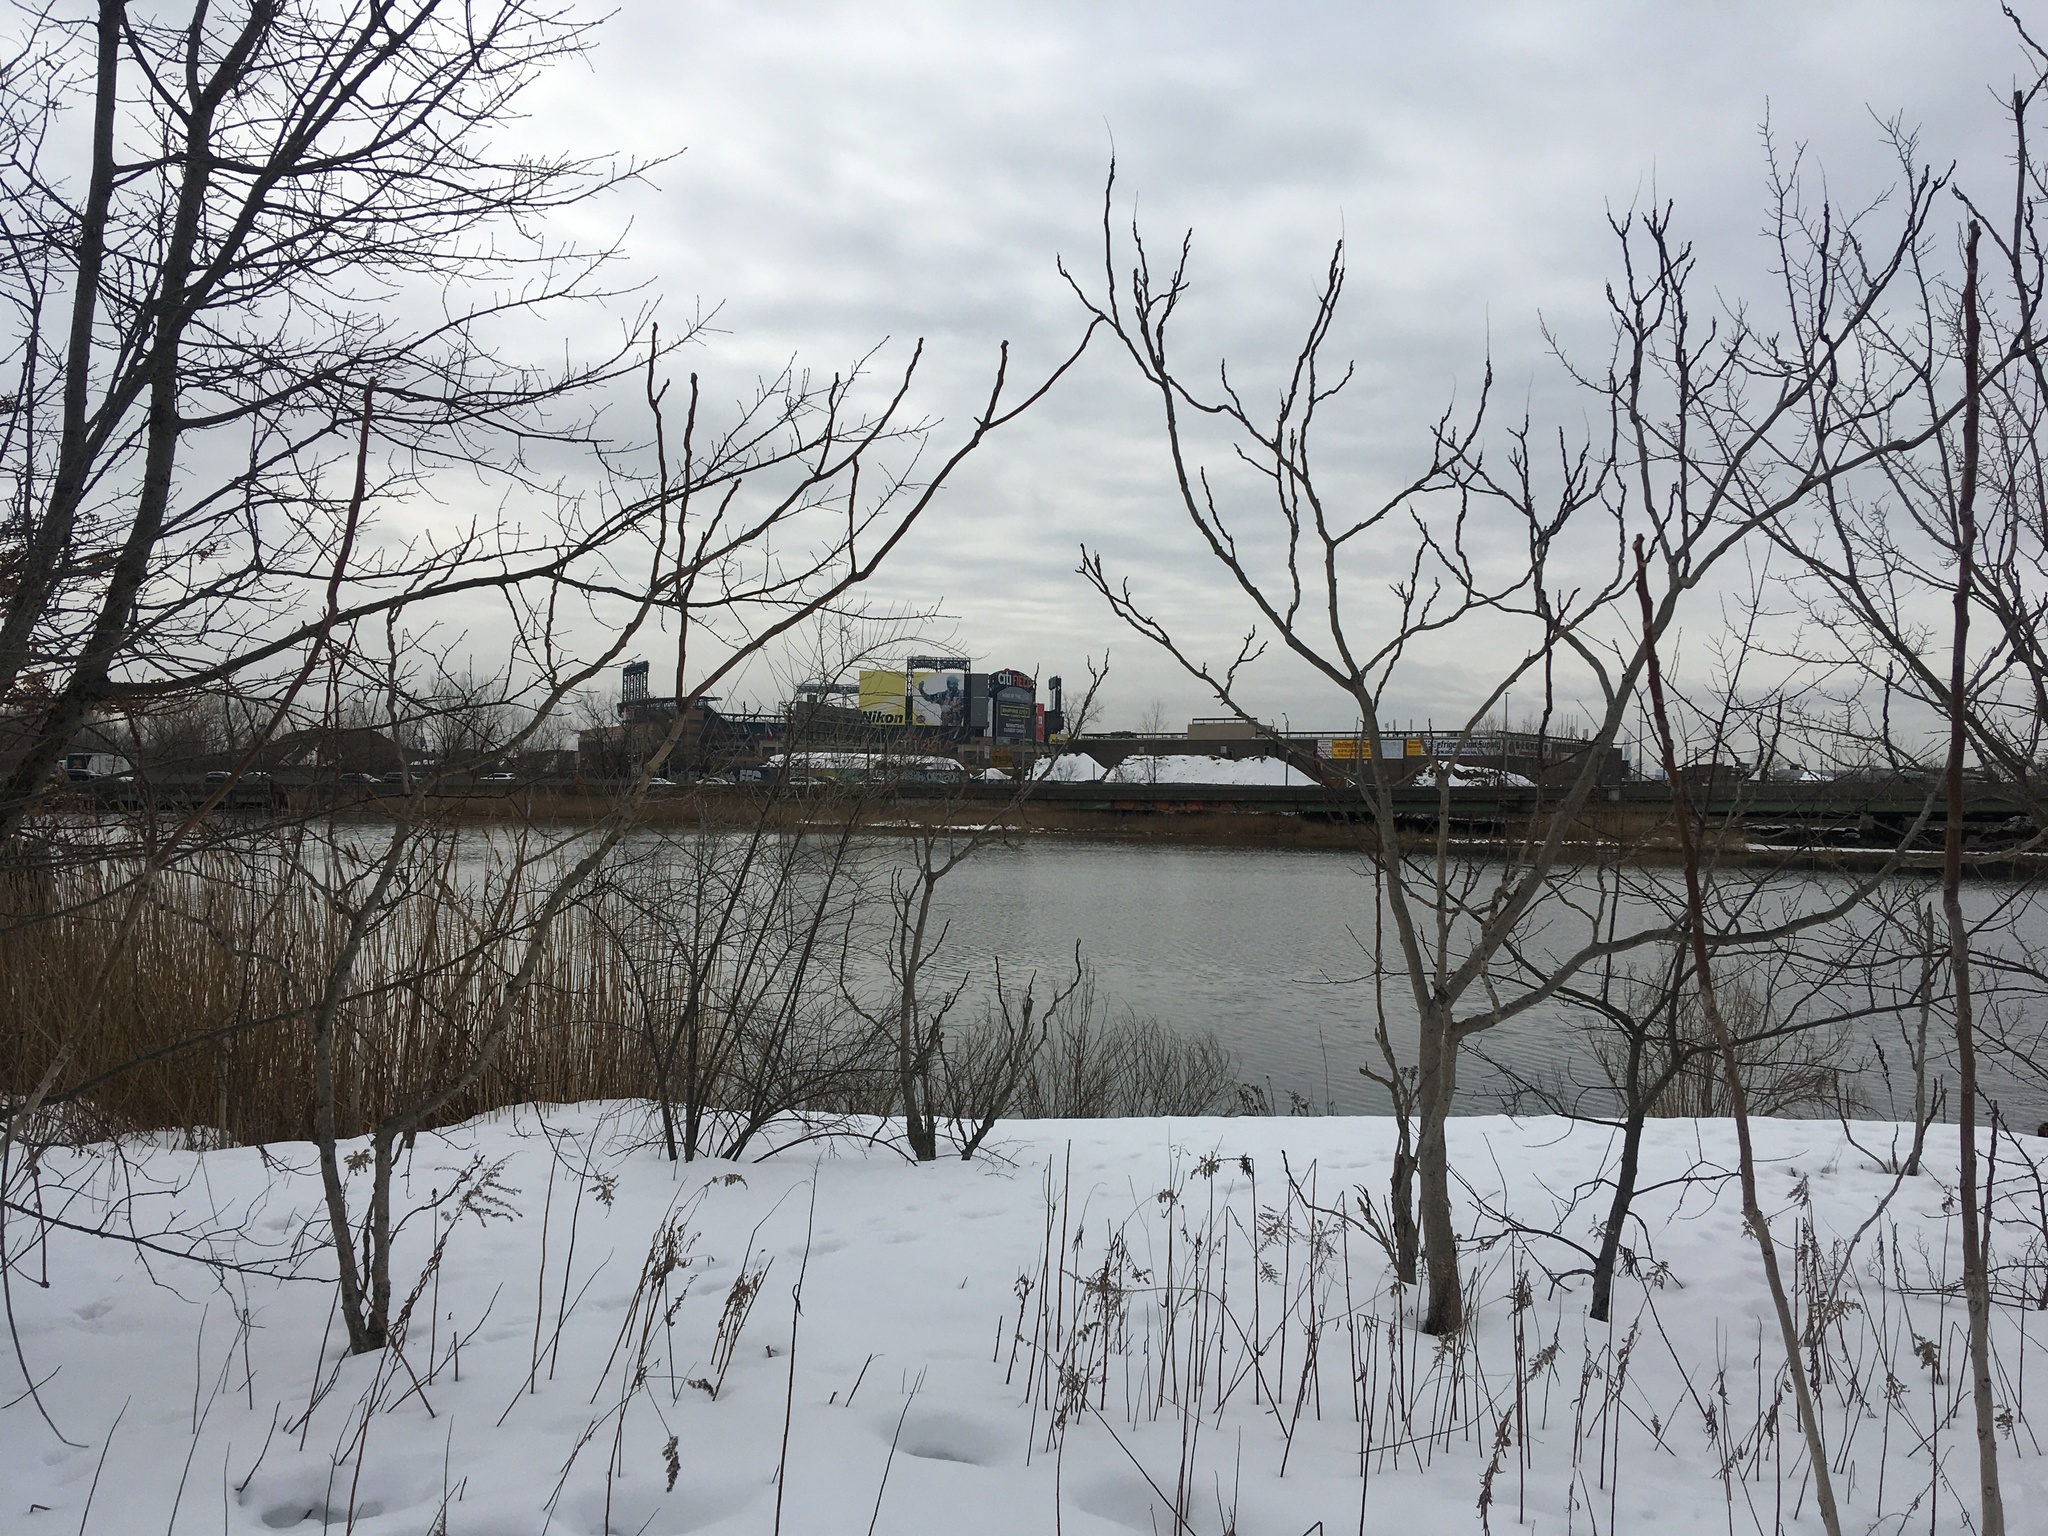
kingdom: Plantae
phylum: Tracheophyta
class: Magnoliopsida
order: Sapindales
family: Simaroubaceae
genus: Ailanthus
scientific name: Ailanthus altissima
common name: Tree-of-heaven
